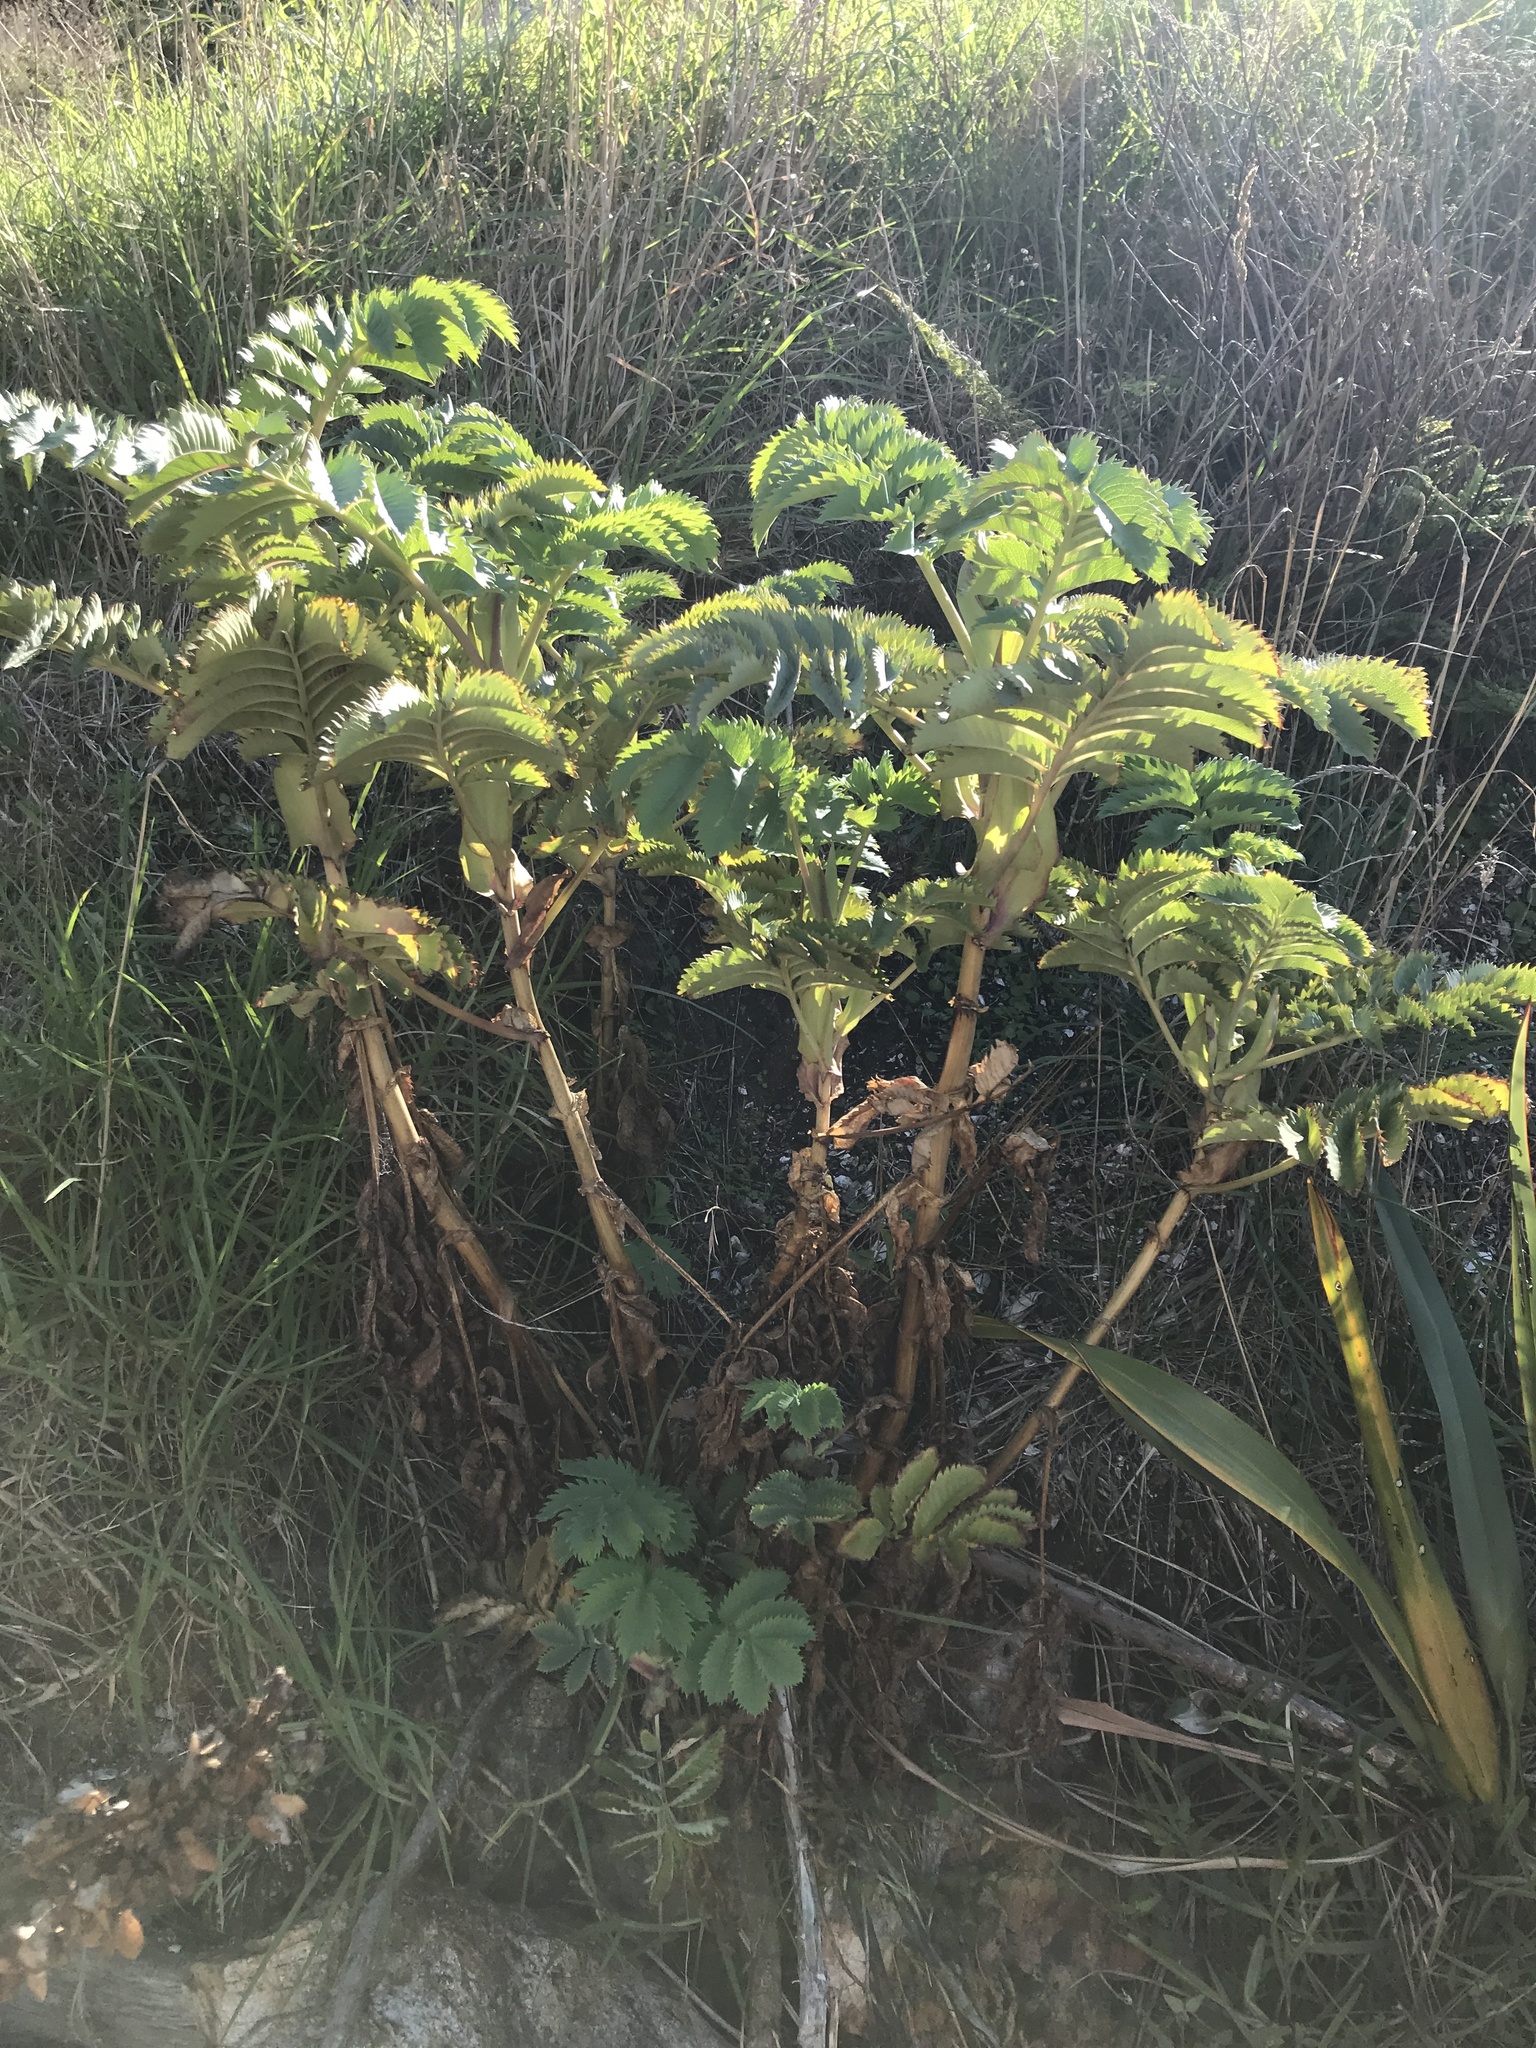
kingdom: Plantae
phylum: Tracheophyta
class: Magnoliopsida
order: Geraniales
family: Melianthaceae
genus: Melianthus
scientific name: Melianthus major
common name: Honey-flower
